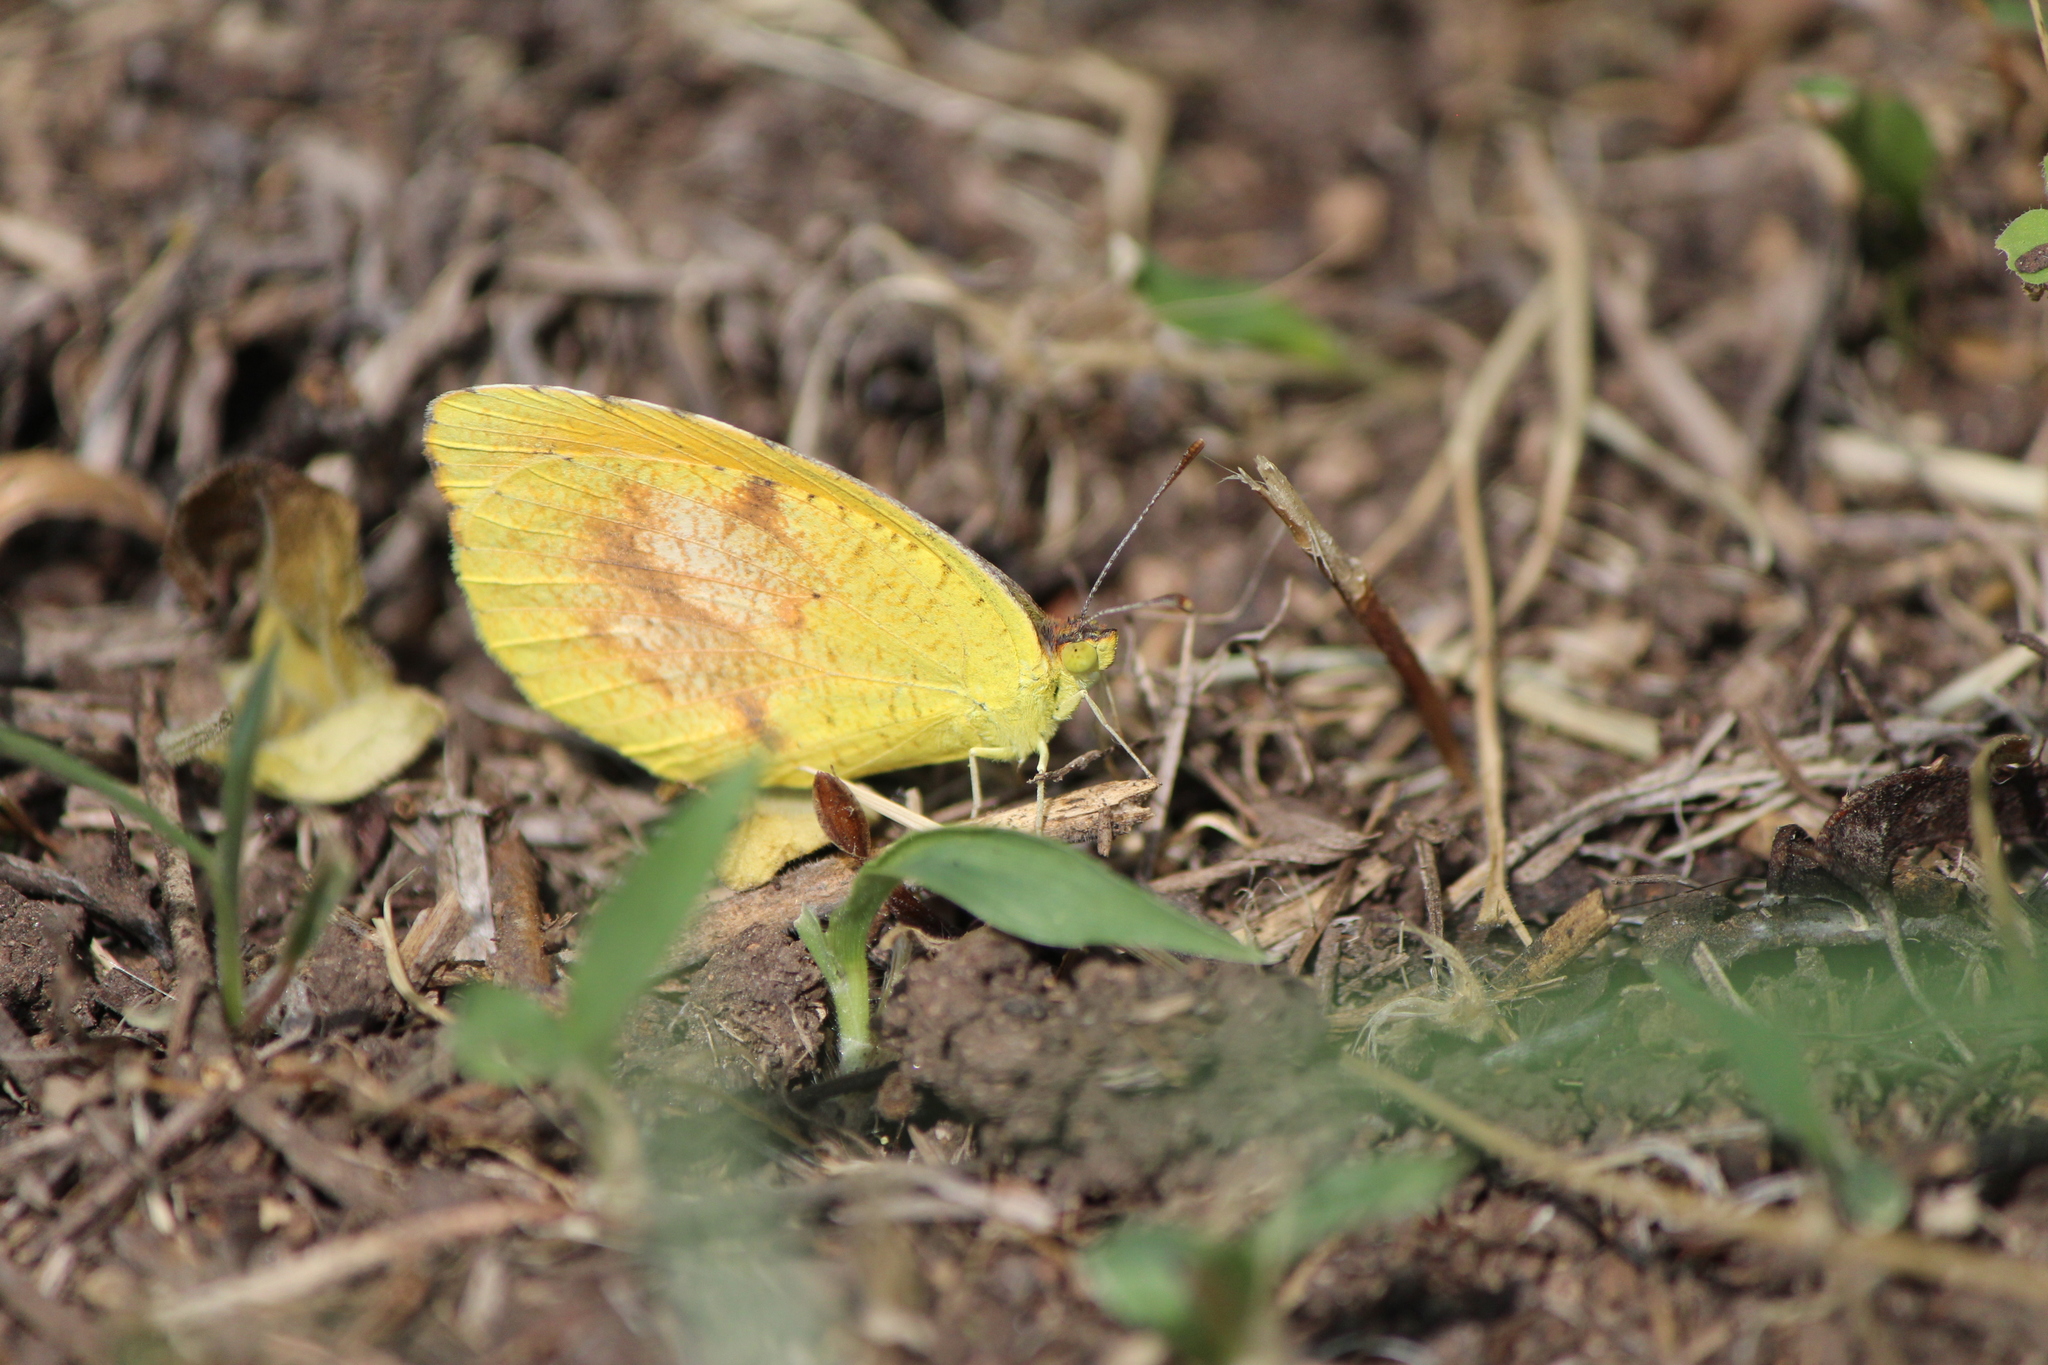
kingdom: Animalia
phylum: Arthropoda
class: Insecta
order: Lepidoptera
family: Pieridae
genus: Abaeis
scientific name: Abaeis nicippe
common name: Sleepy orange
